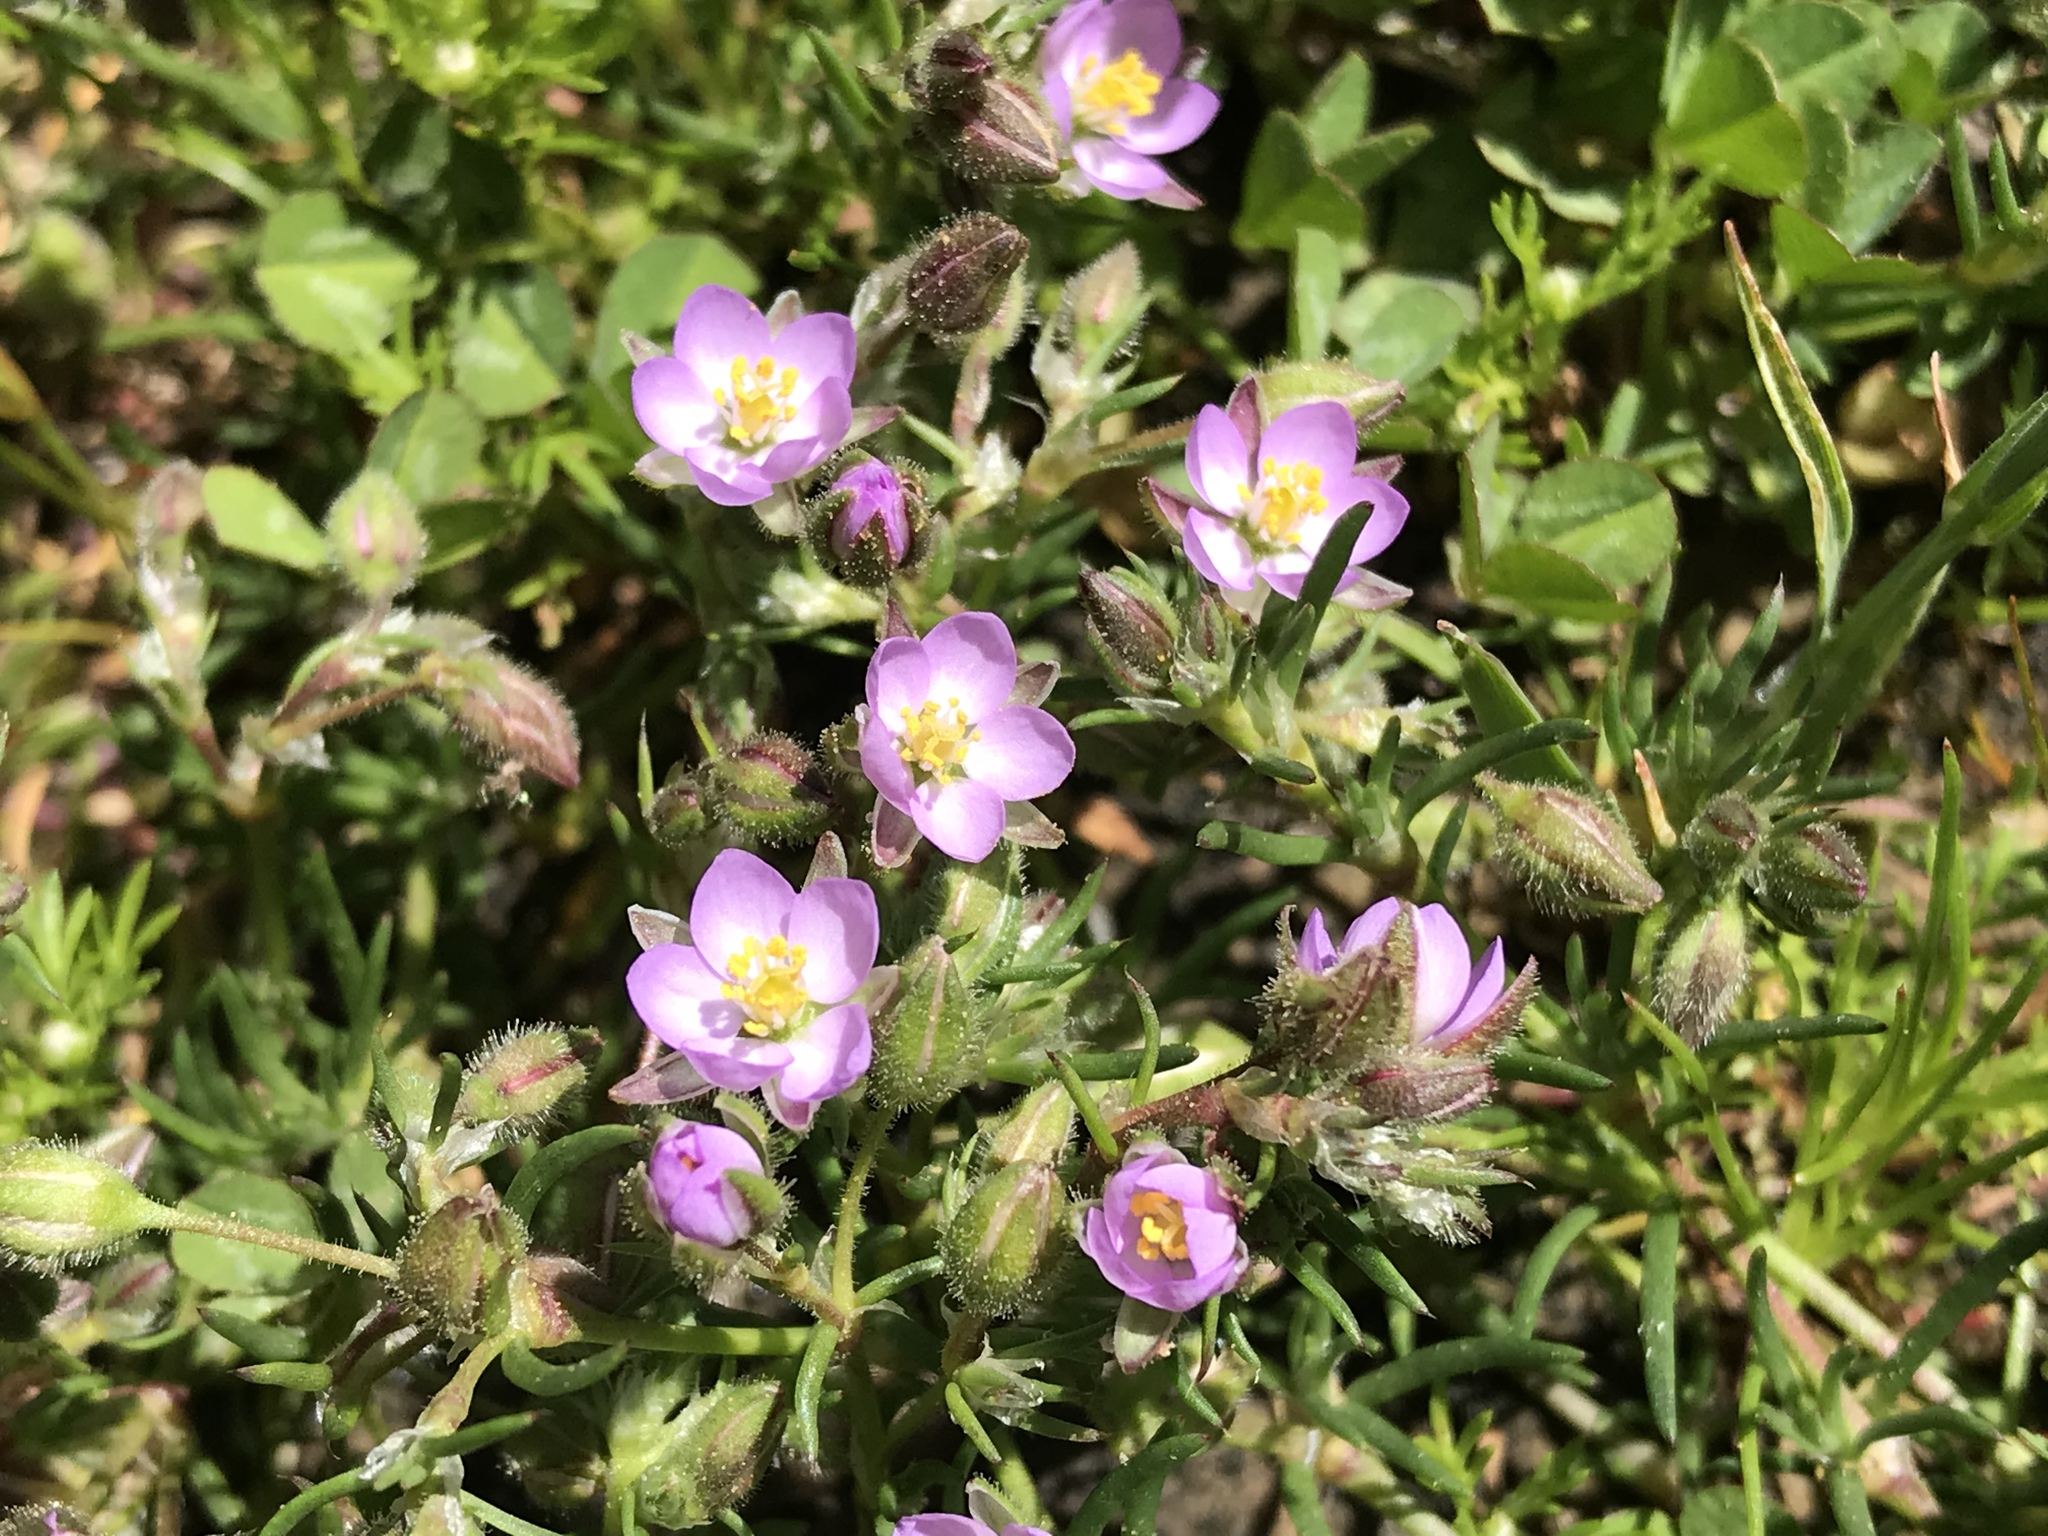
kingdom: Plantae
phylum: Tracheophyta
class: Magnoliopsida
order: Caryophyllales
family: Caryophyllaceae
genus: Spergularia
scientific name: Spergularia rubra
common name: Red sand-spurrey
